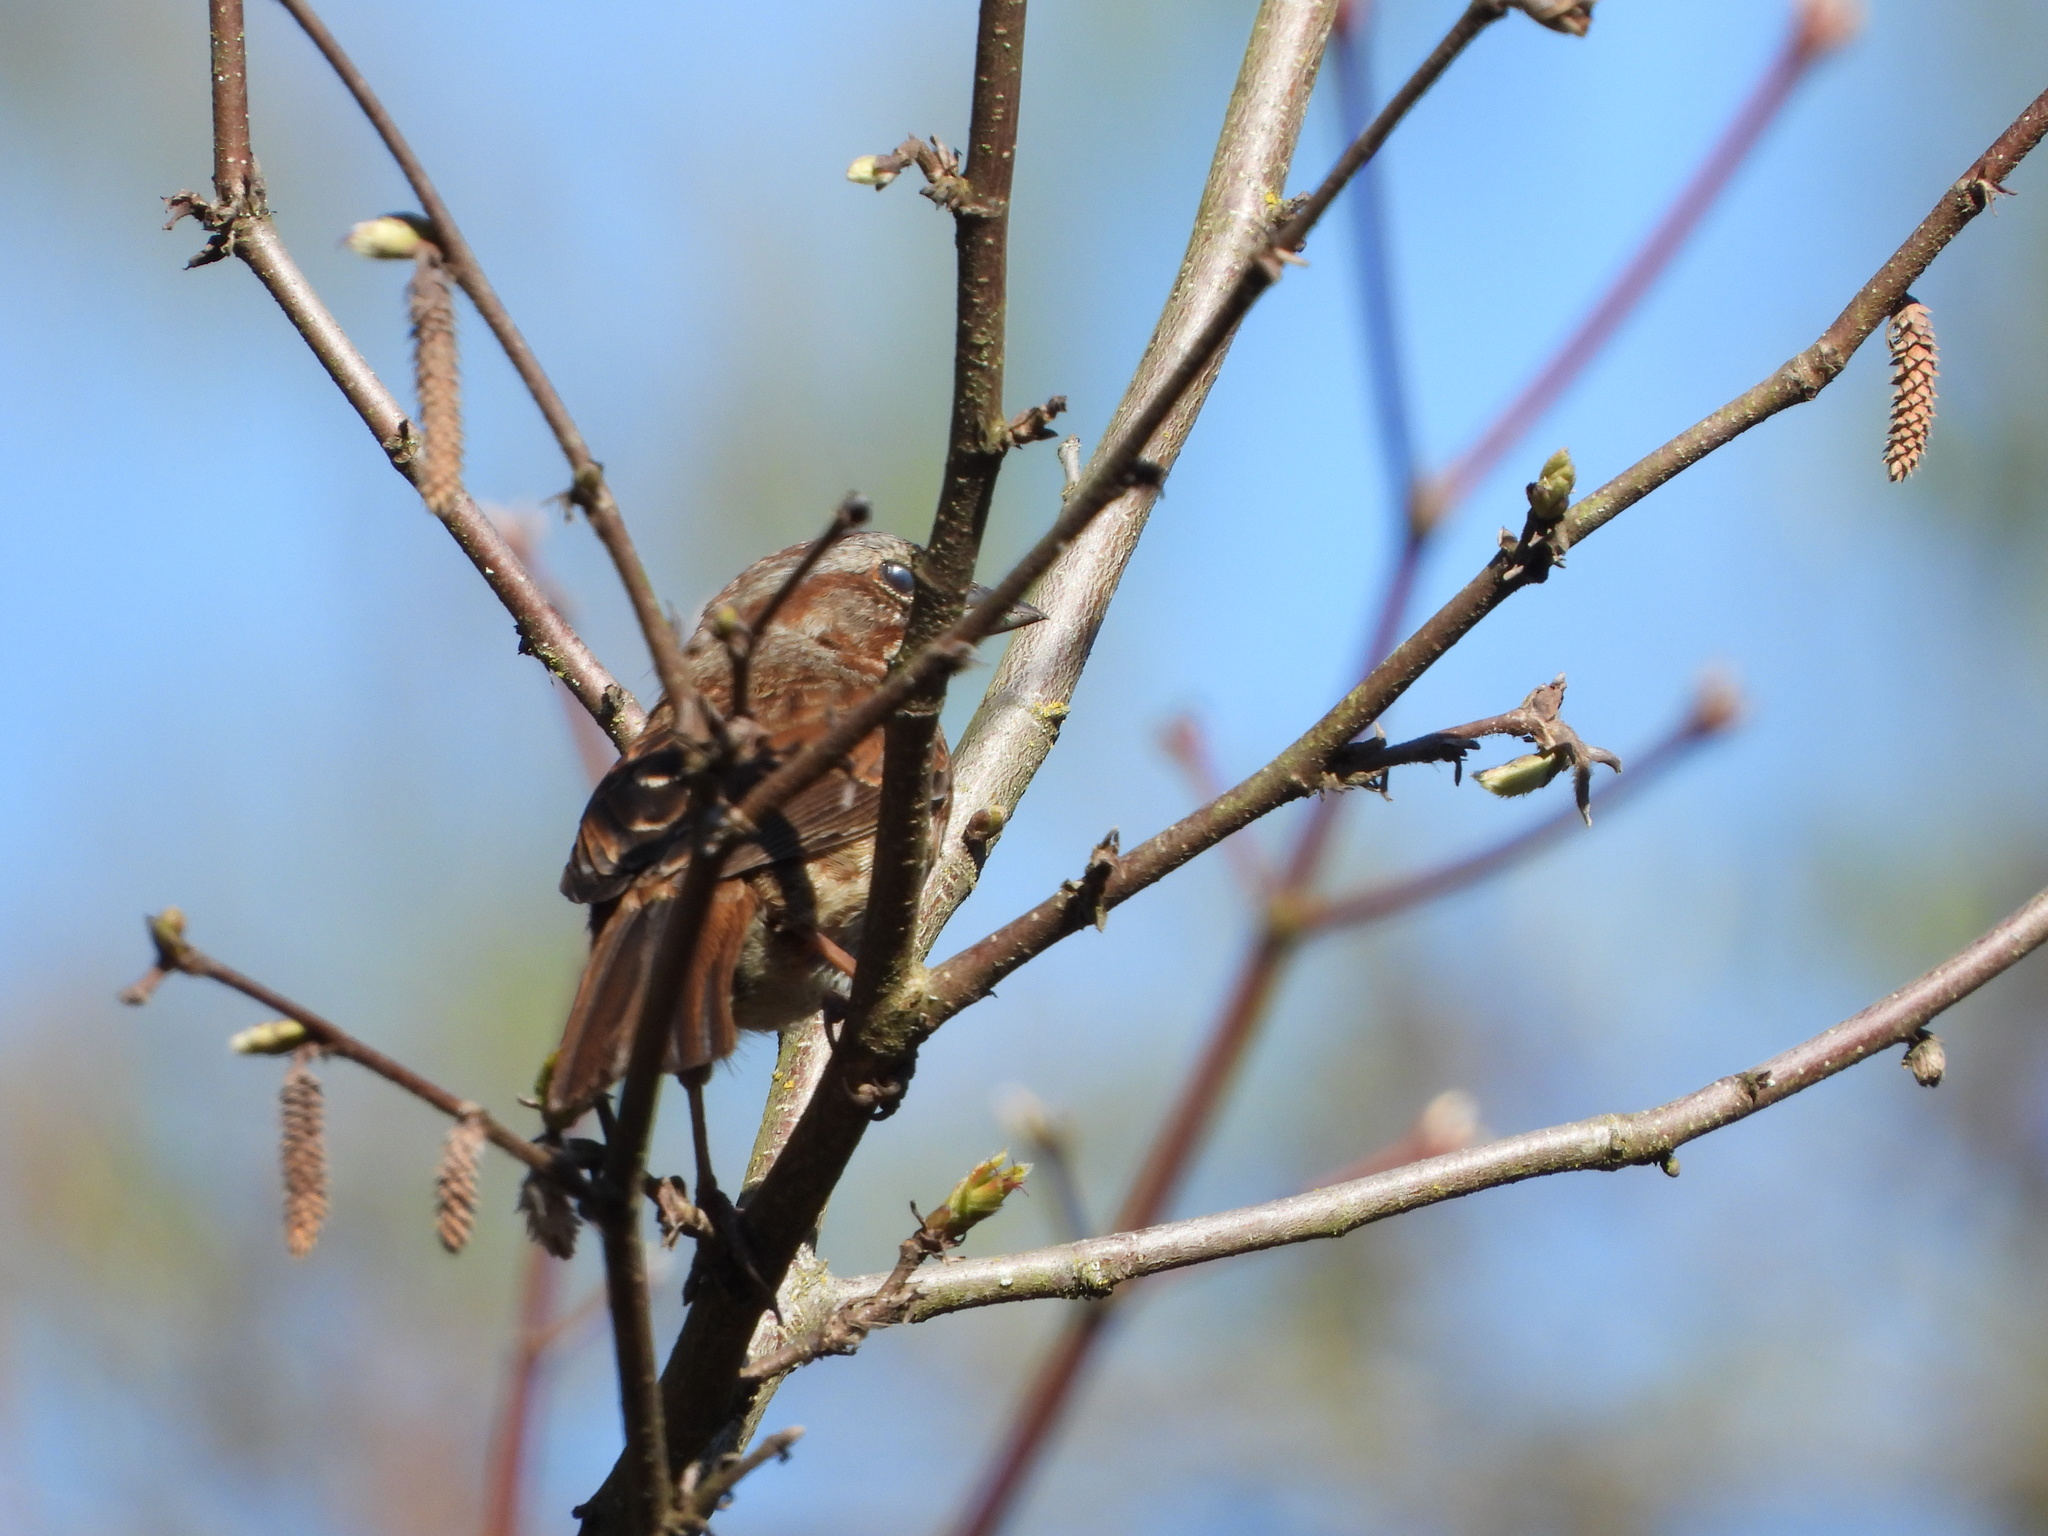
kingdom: Animalia
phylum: Chordata
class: Aves
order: Passeriformes
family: Passerellidae
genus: Melospiza
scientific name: Melospiza melodia
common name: Song sparrow
